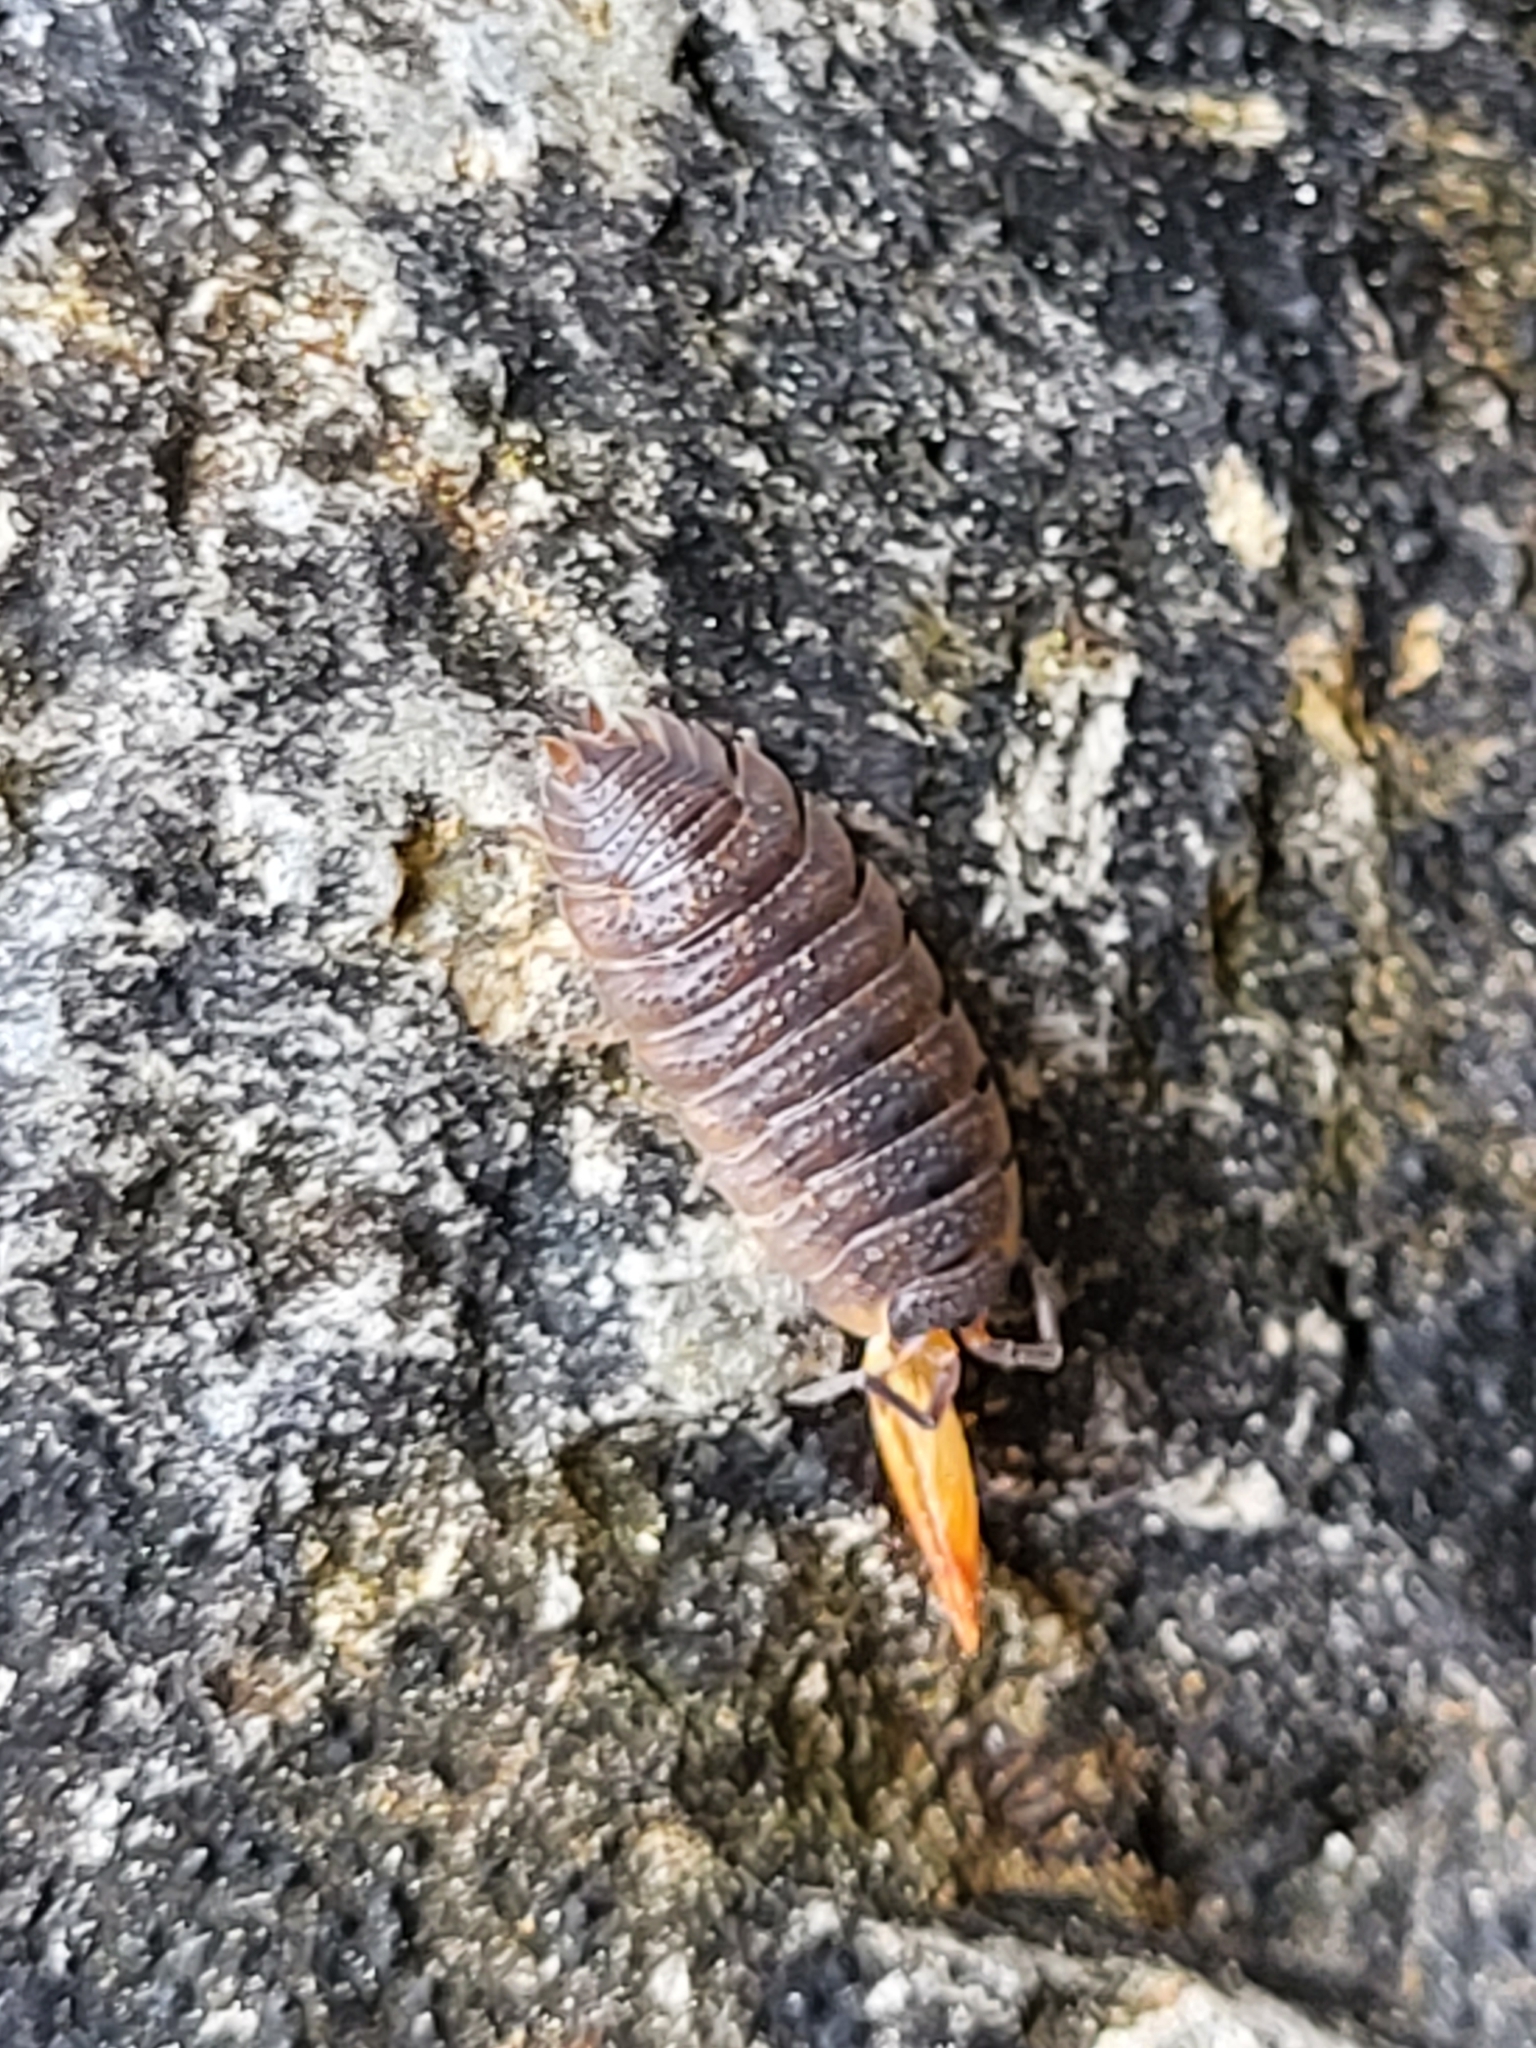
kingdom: Animalia
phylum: Arthropoda
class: Malacostraca
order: Isopoda
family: Porcellionidae
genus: Porcellio
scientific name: Porcellio scaber
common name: Common rough woodlouse
